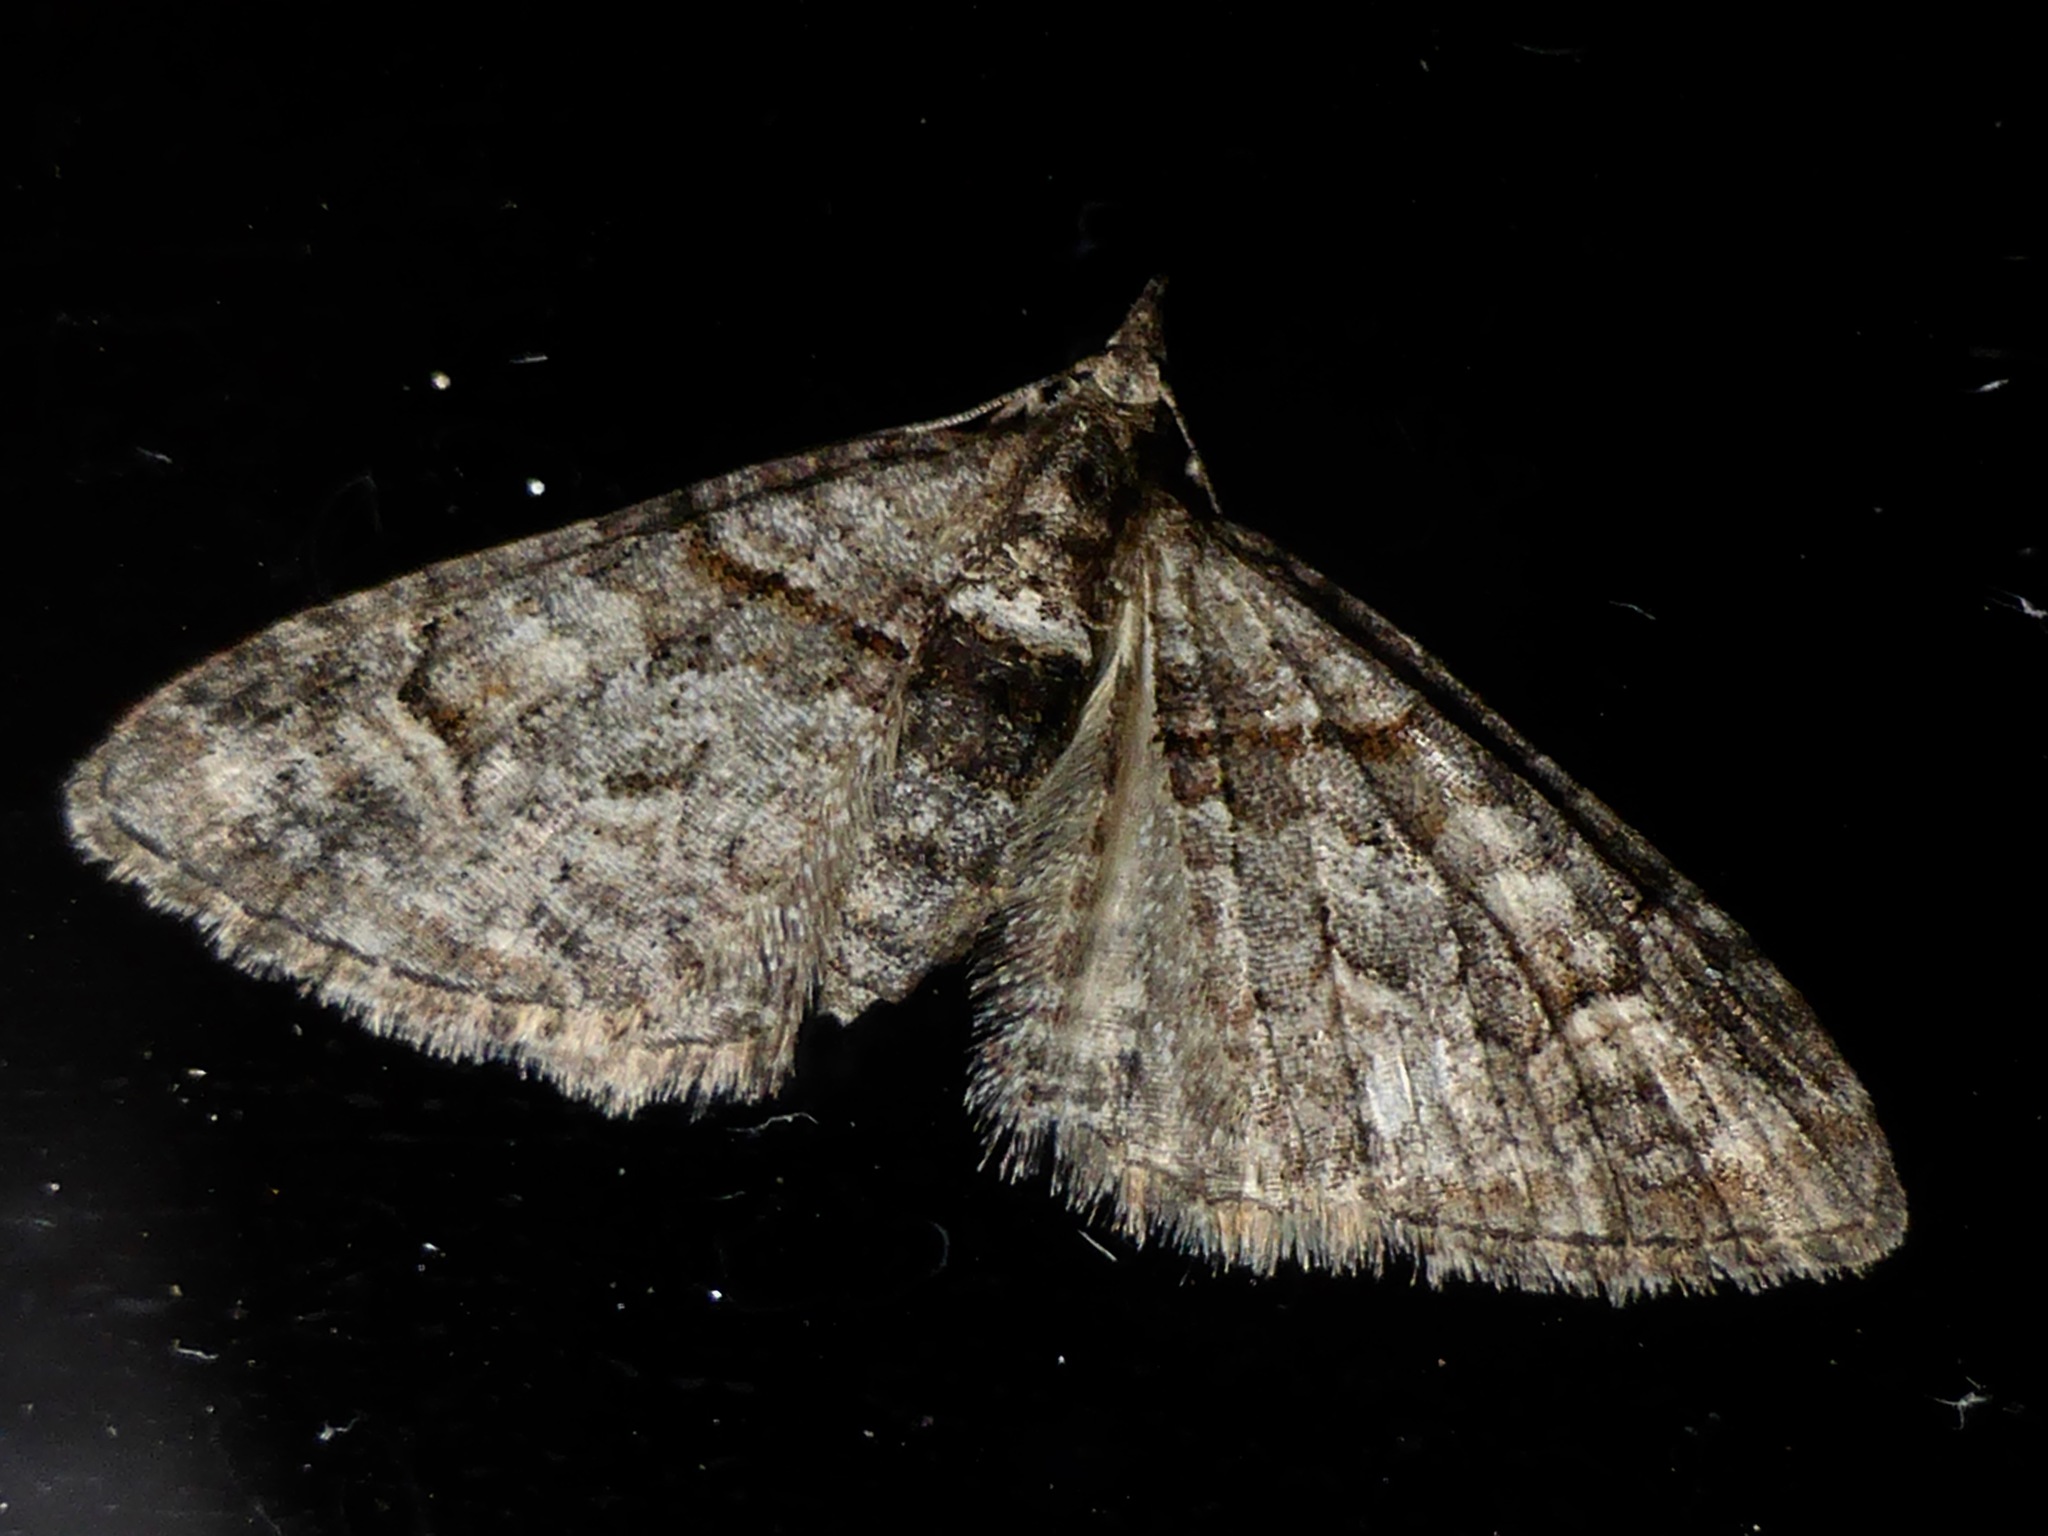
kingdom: Animalia
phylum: Arthropoda
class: Insecta
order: Lepidoptera
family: Geometridae
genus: Phrissogonus
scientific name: Phrissogonus laticostata
